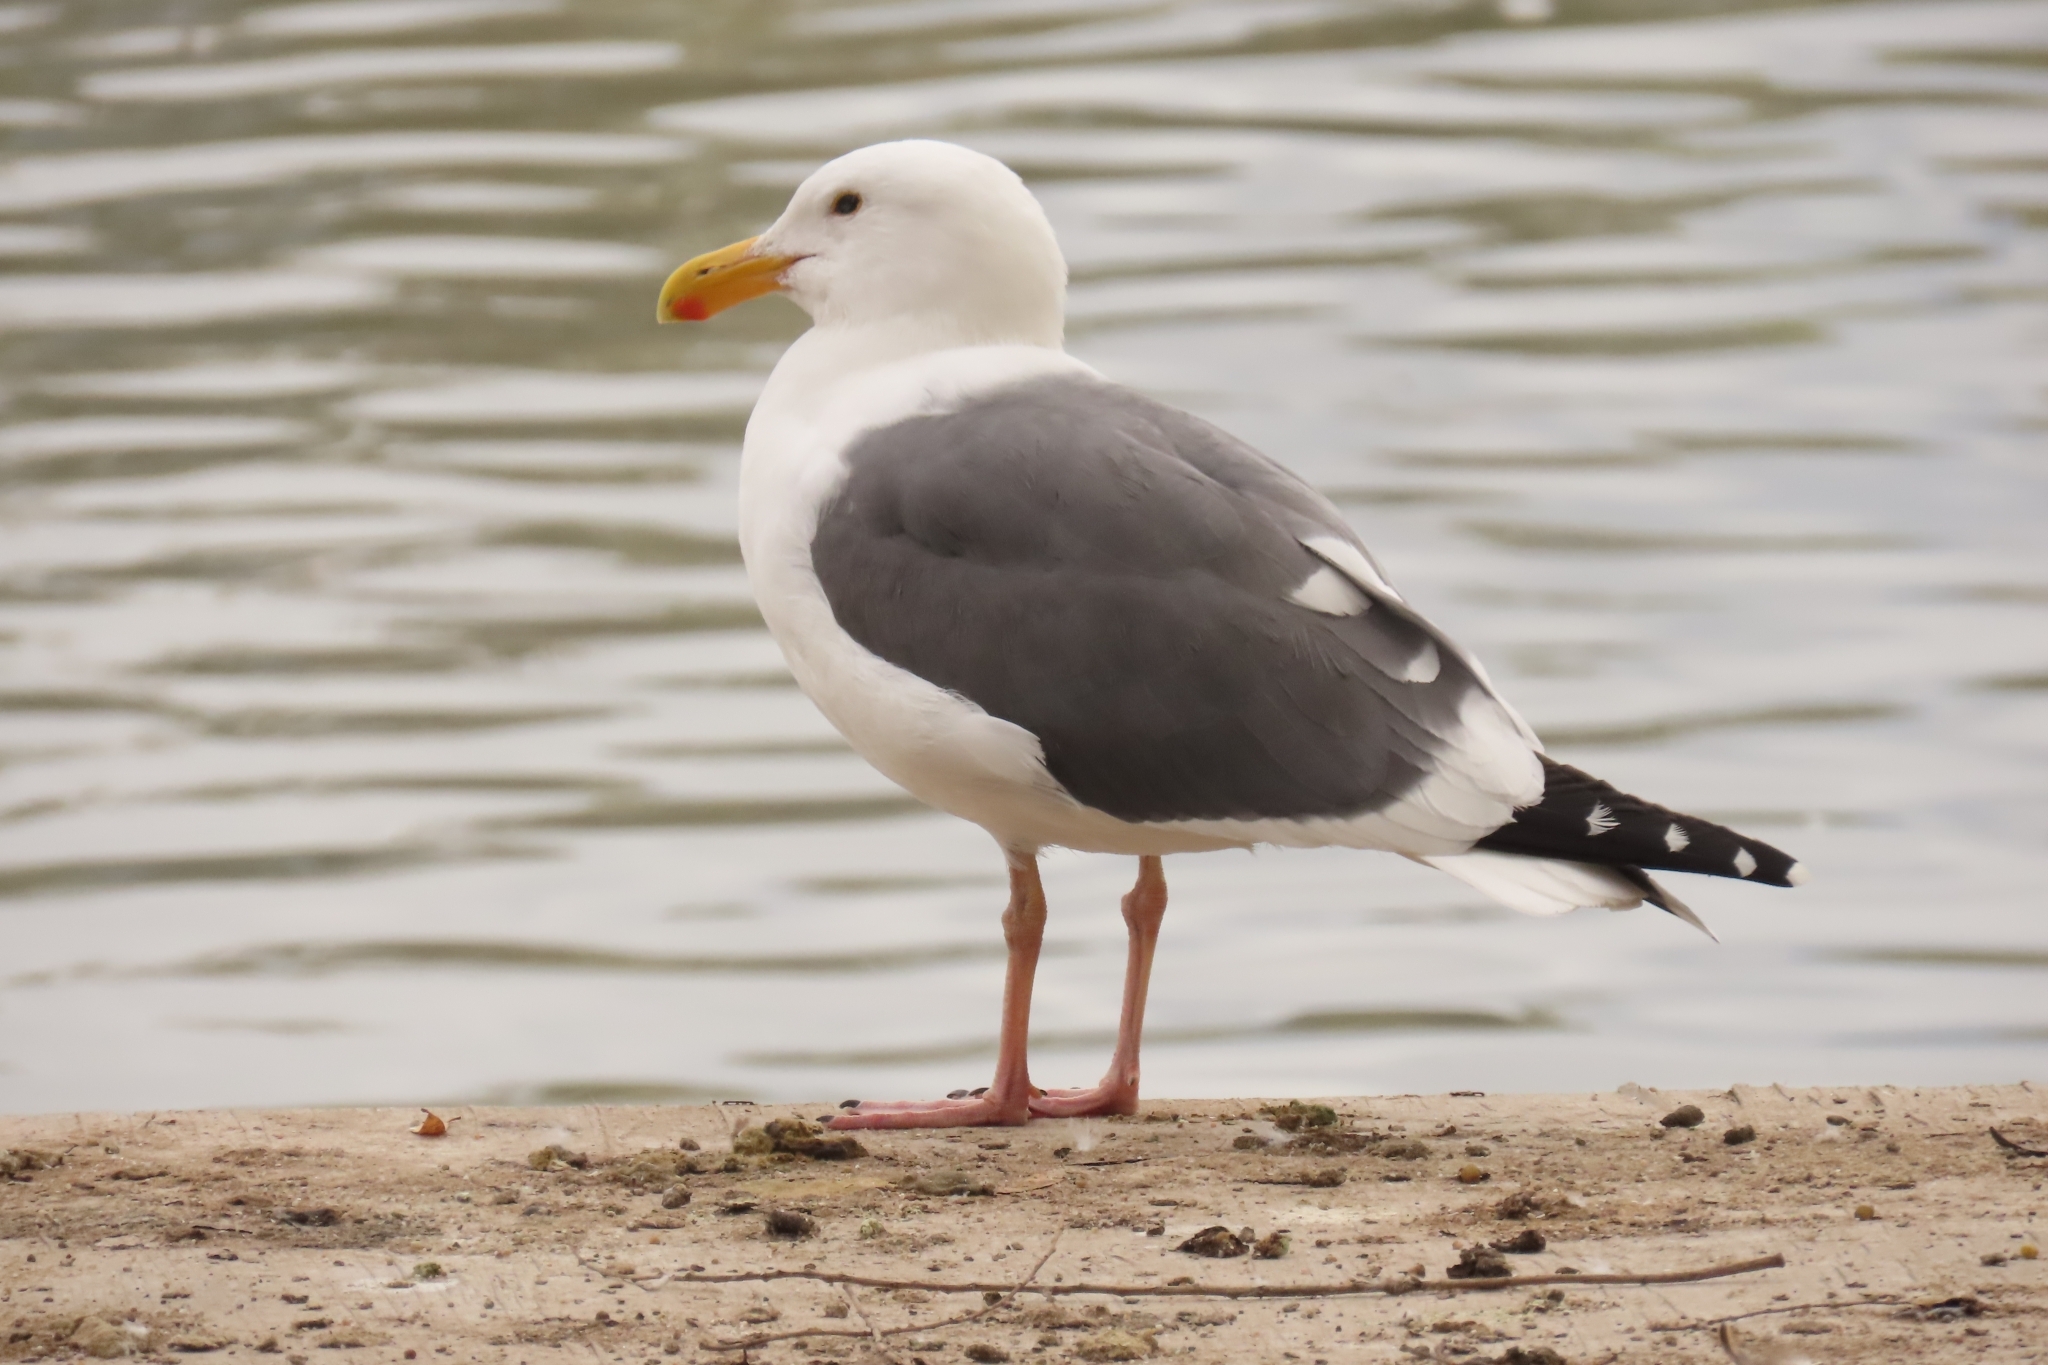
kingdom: Animalia
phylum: Chordata
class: Aves
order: Charadriiformes
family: Laridae
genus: Larus
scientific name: Larus occidentalis
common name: Western gull
